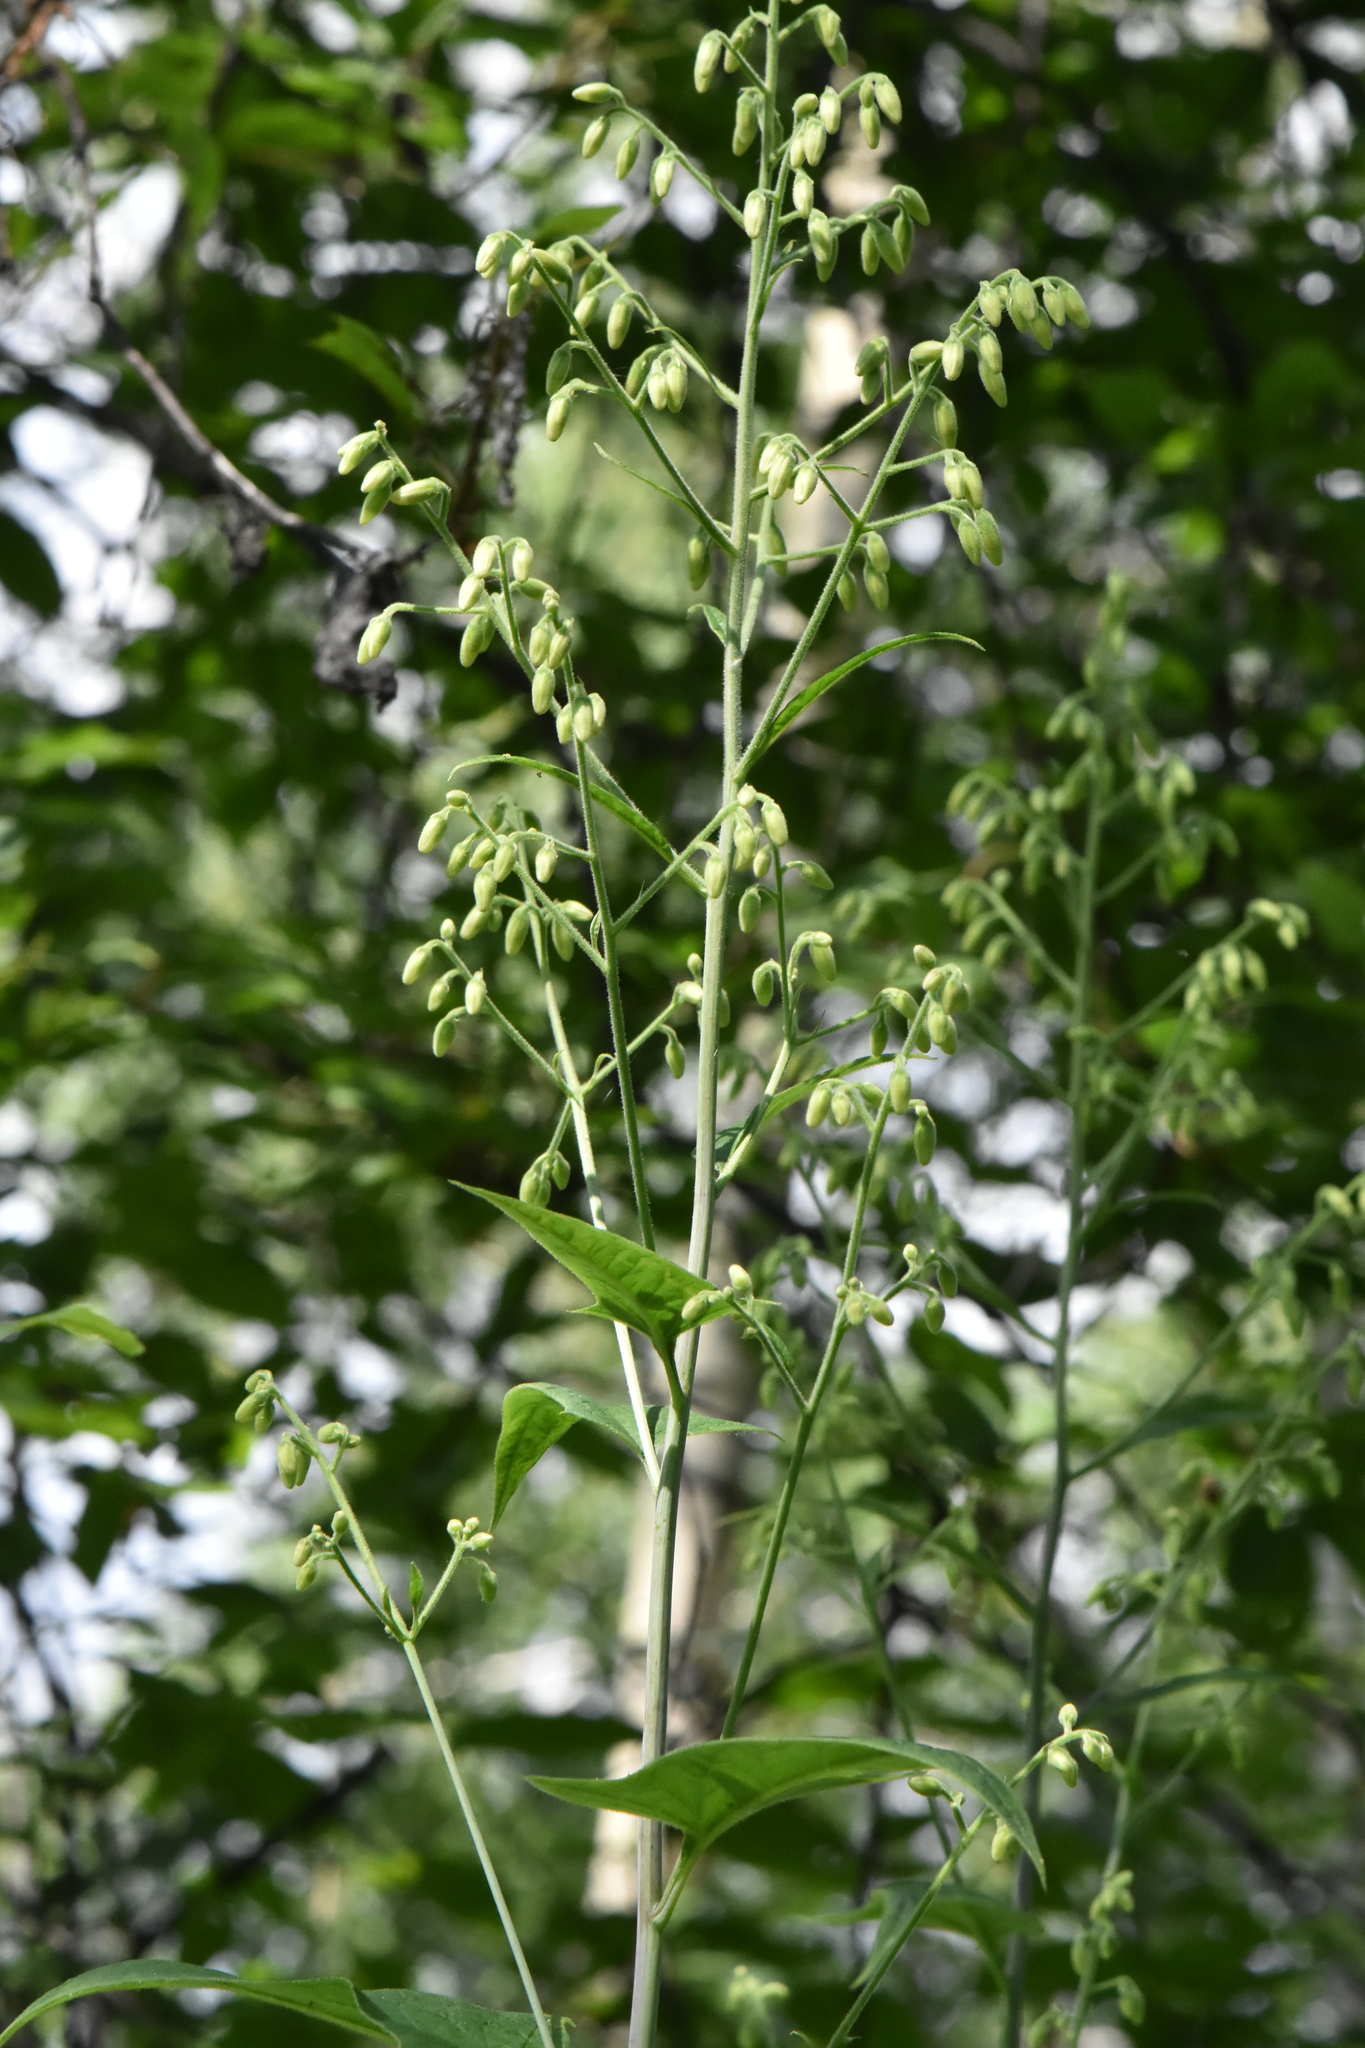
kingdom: Plantae
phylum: Tracheophyta
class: Magnoliopsida
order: Asterales
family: Asteraceae
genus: Parasenecio
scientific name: Parasenecio hastatus
